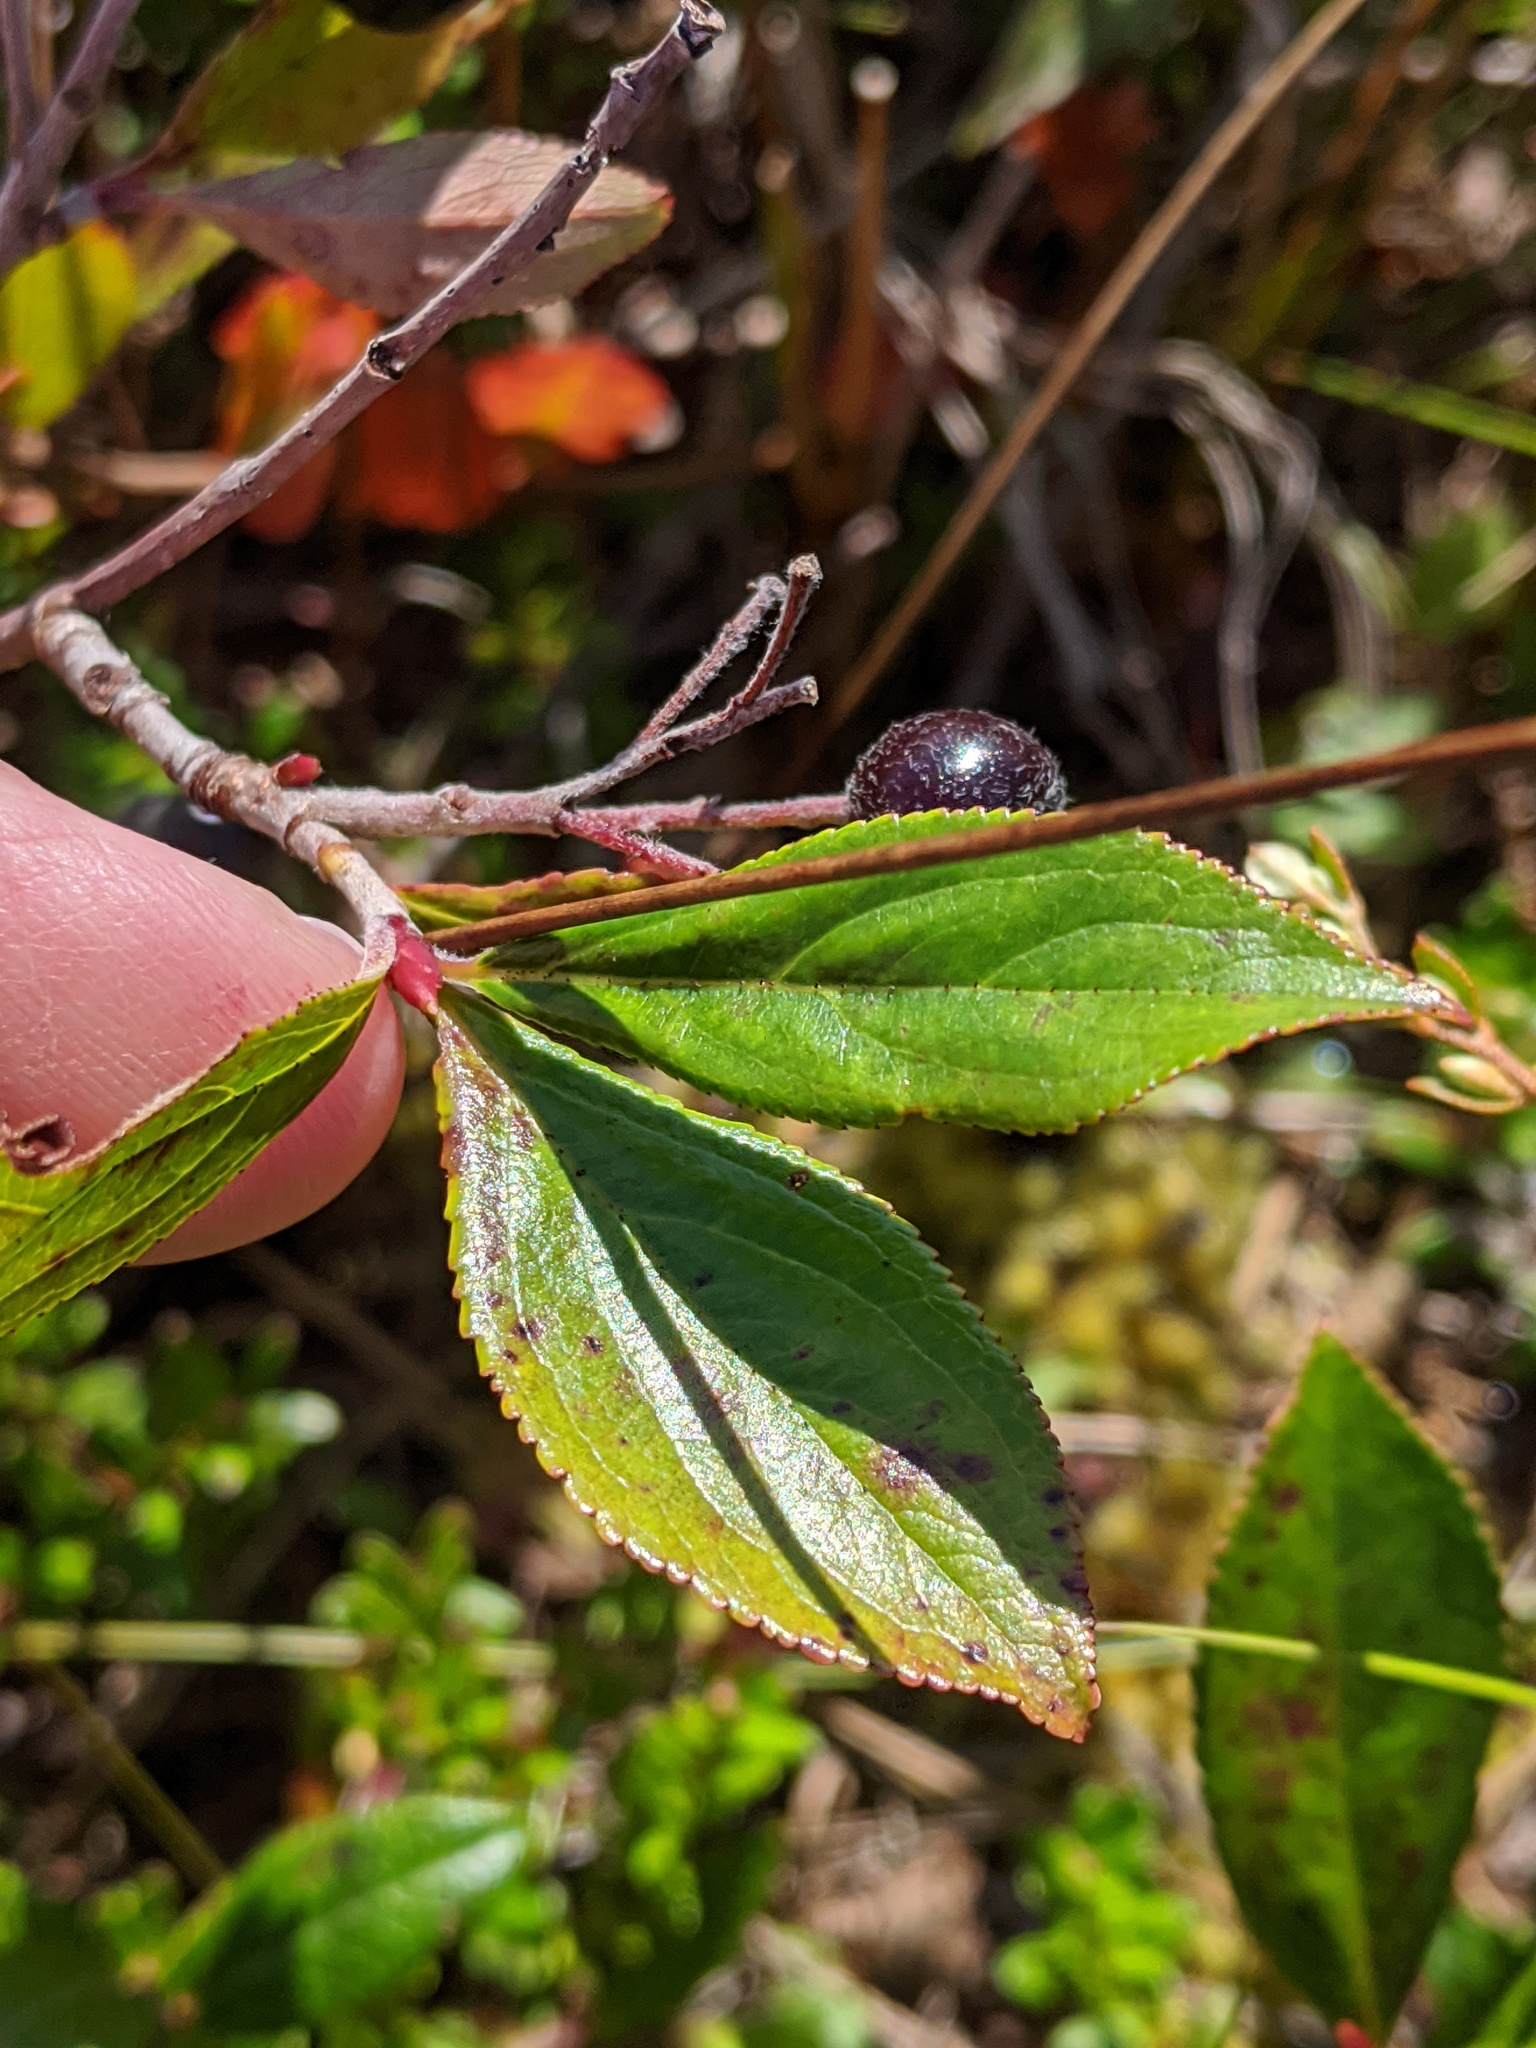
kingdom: Plantae
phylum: Tracheophyta
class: Magnoliopsida
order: Rosales
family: Rosaceae
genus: Aronia
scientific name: Aronia prunifolia
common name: Purple chokeberry
